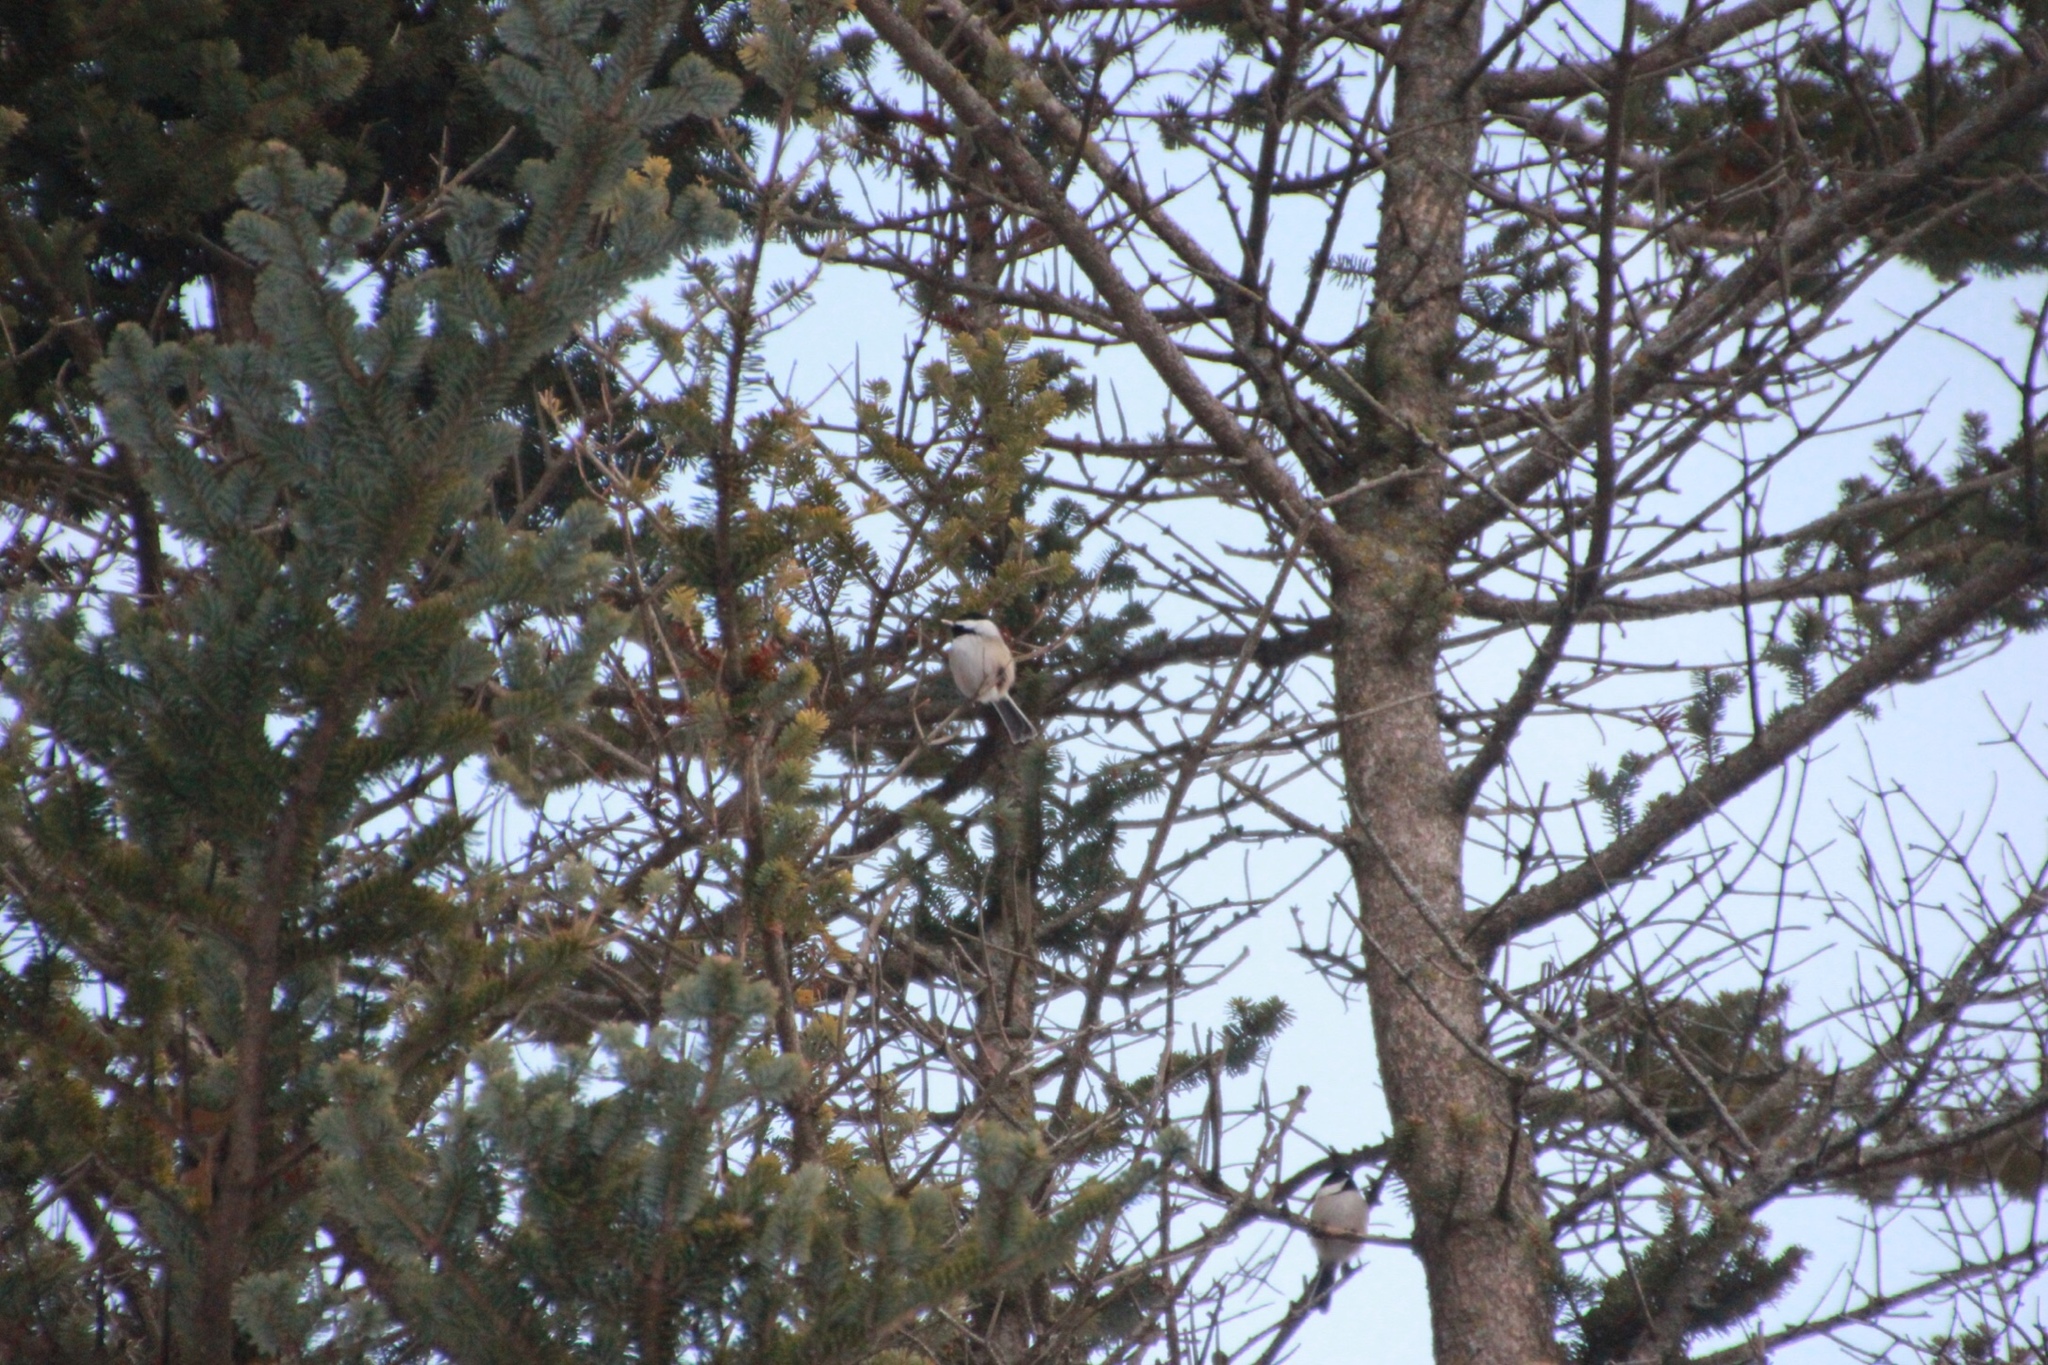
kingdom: Animalia
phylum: Chordata
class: Aves
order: Passeriformes
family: Paridae
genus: Poecile
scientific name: Poecile atricapillus
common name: Black-capped chickadee
